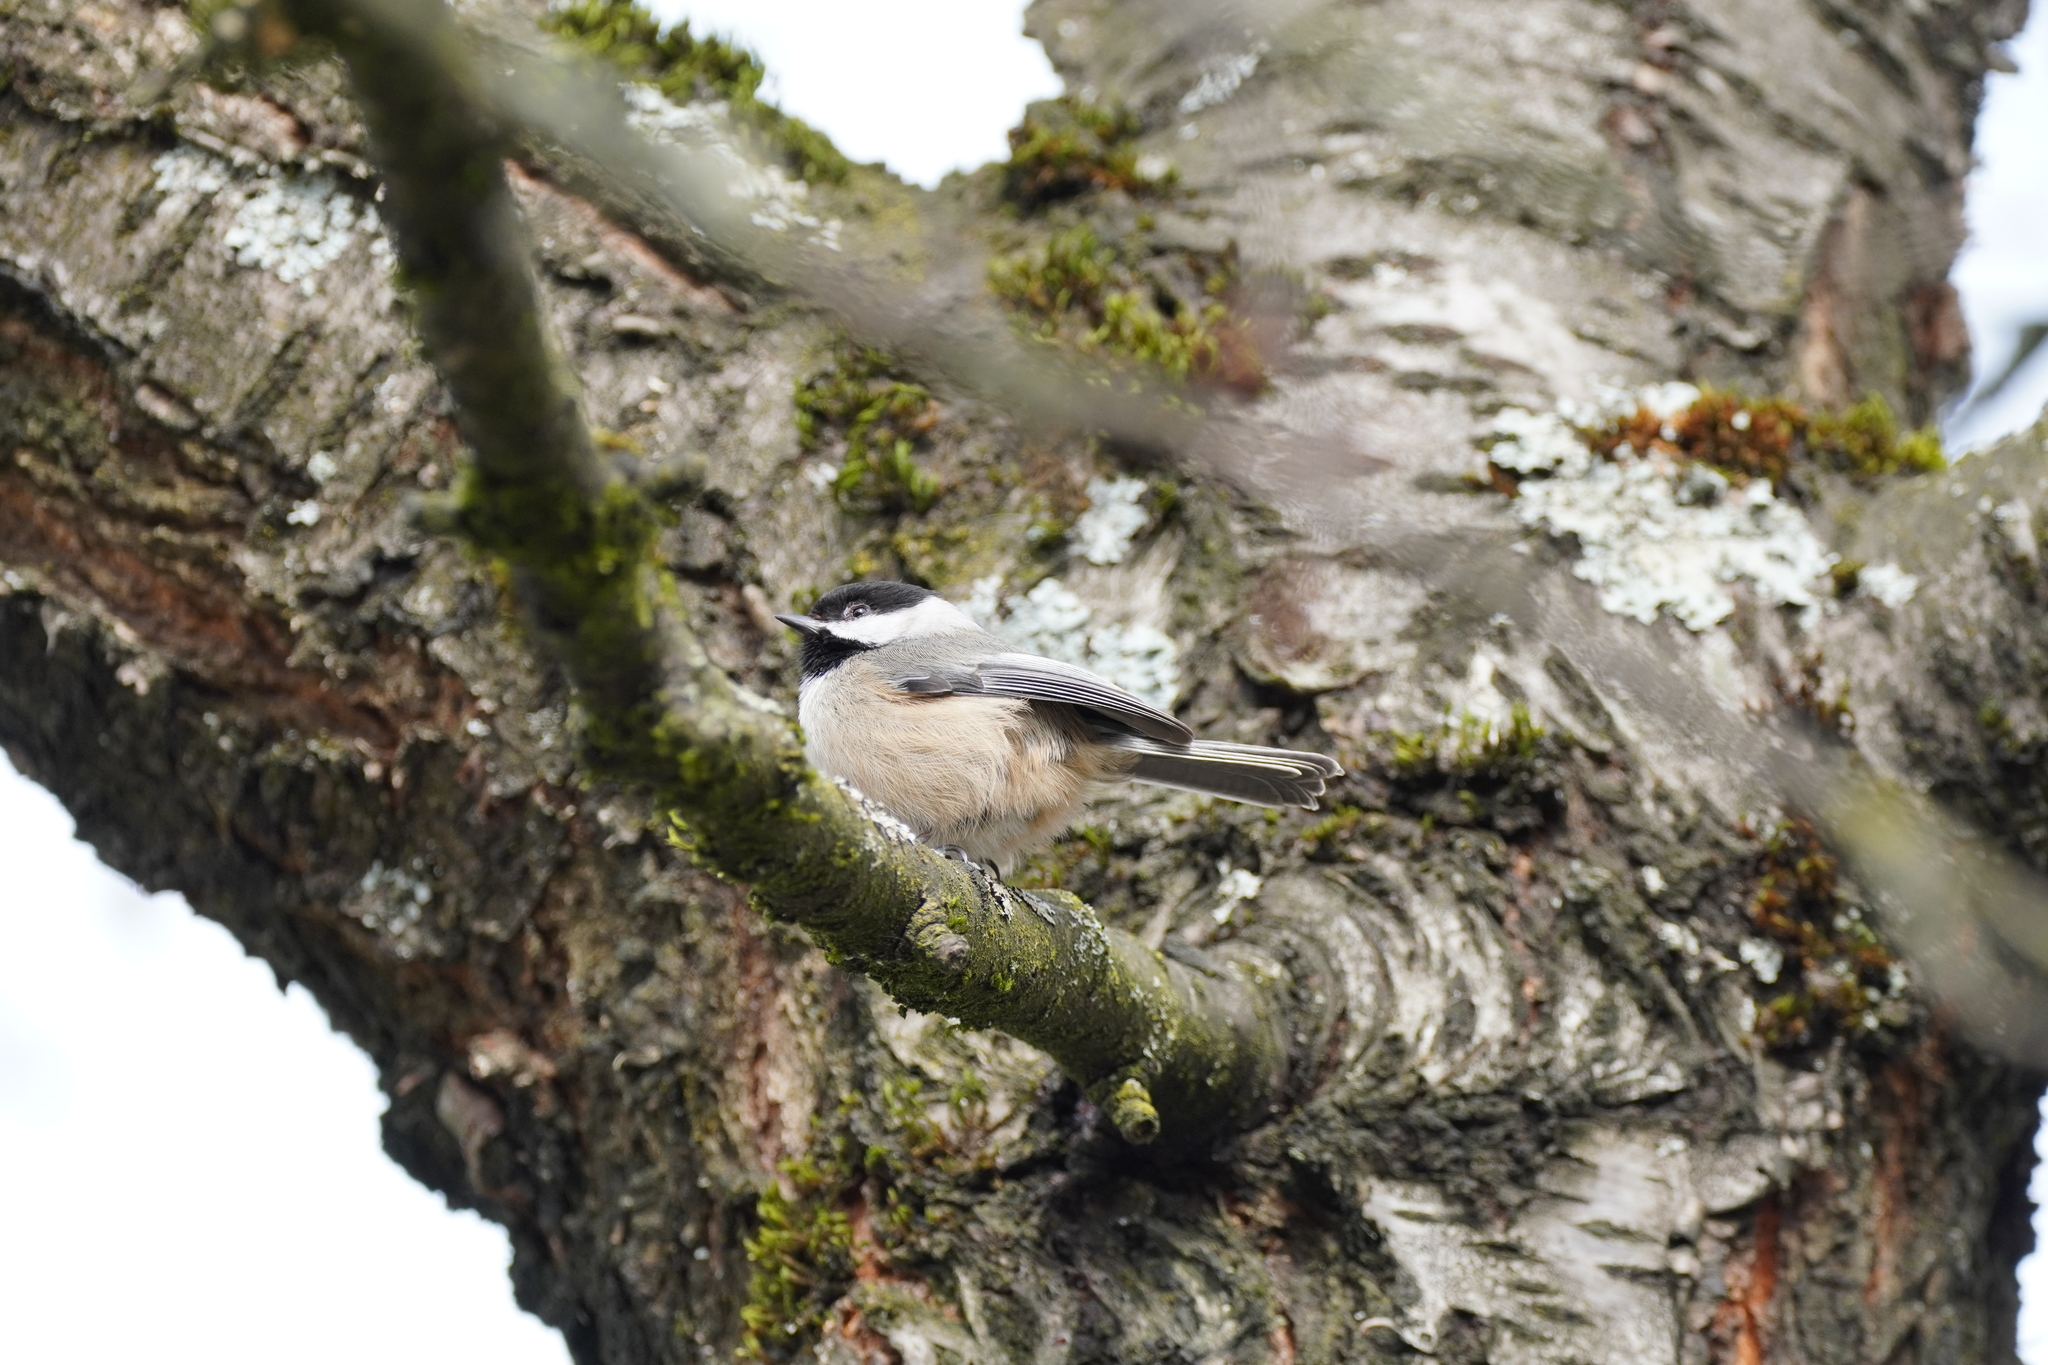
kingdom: Animalia
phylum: Chordata
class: Aves
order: Passeriformes
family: Paridae
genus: Poecile
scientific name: Poecile atricapillus
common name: Black-capped chickadee
